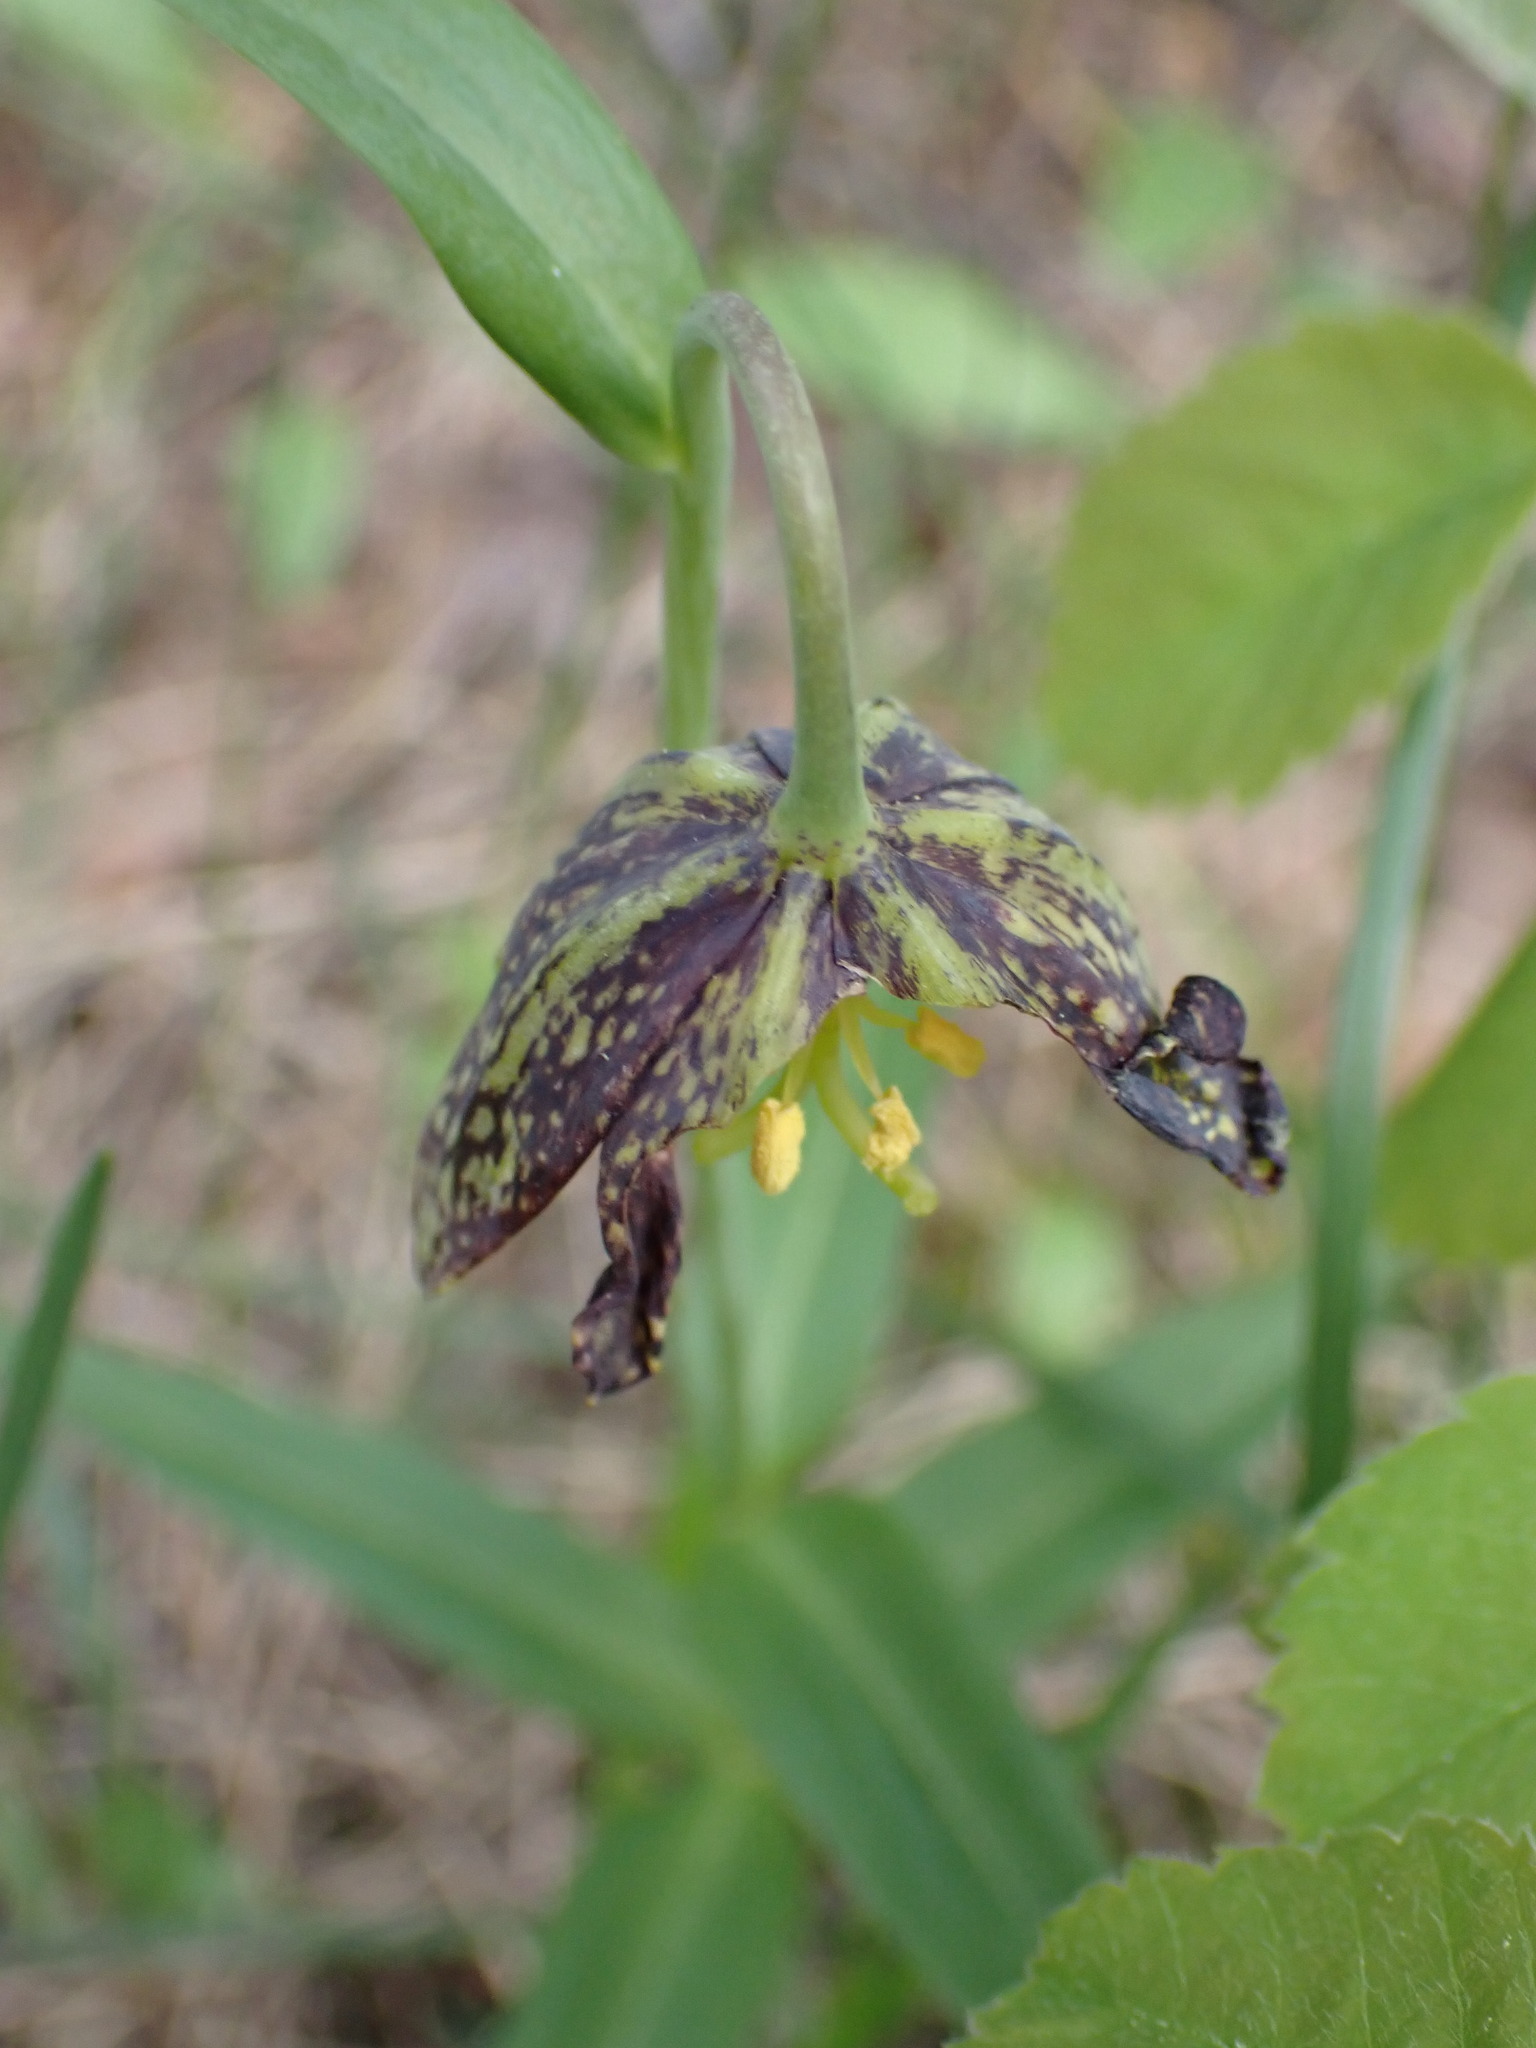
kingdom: Plantae
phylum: Tracheophyta
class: Liliopsida
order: Liliales
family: Liliaceae
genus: Fritillaria
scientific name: Fritillaria affinis
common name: Ojai fritillary
